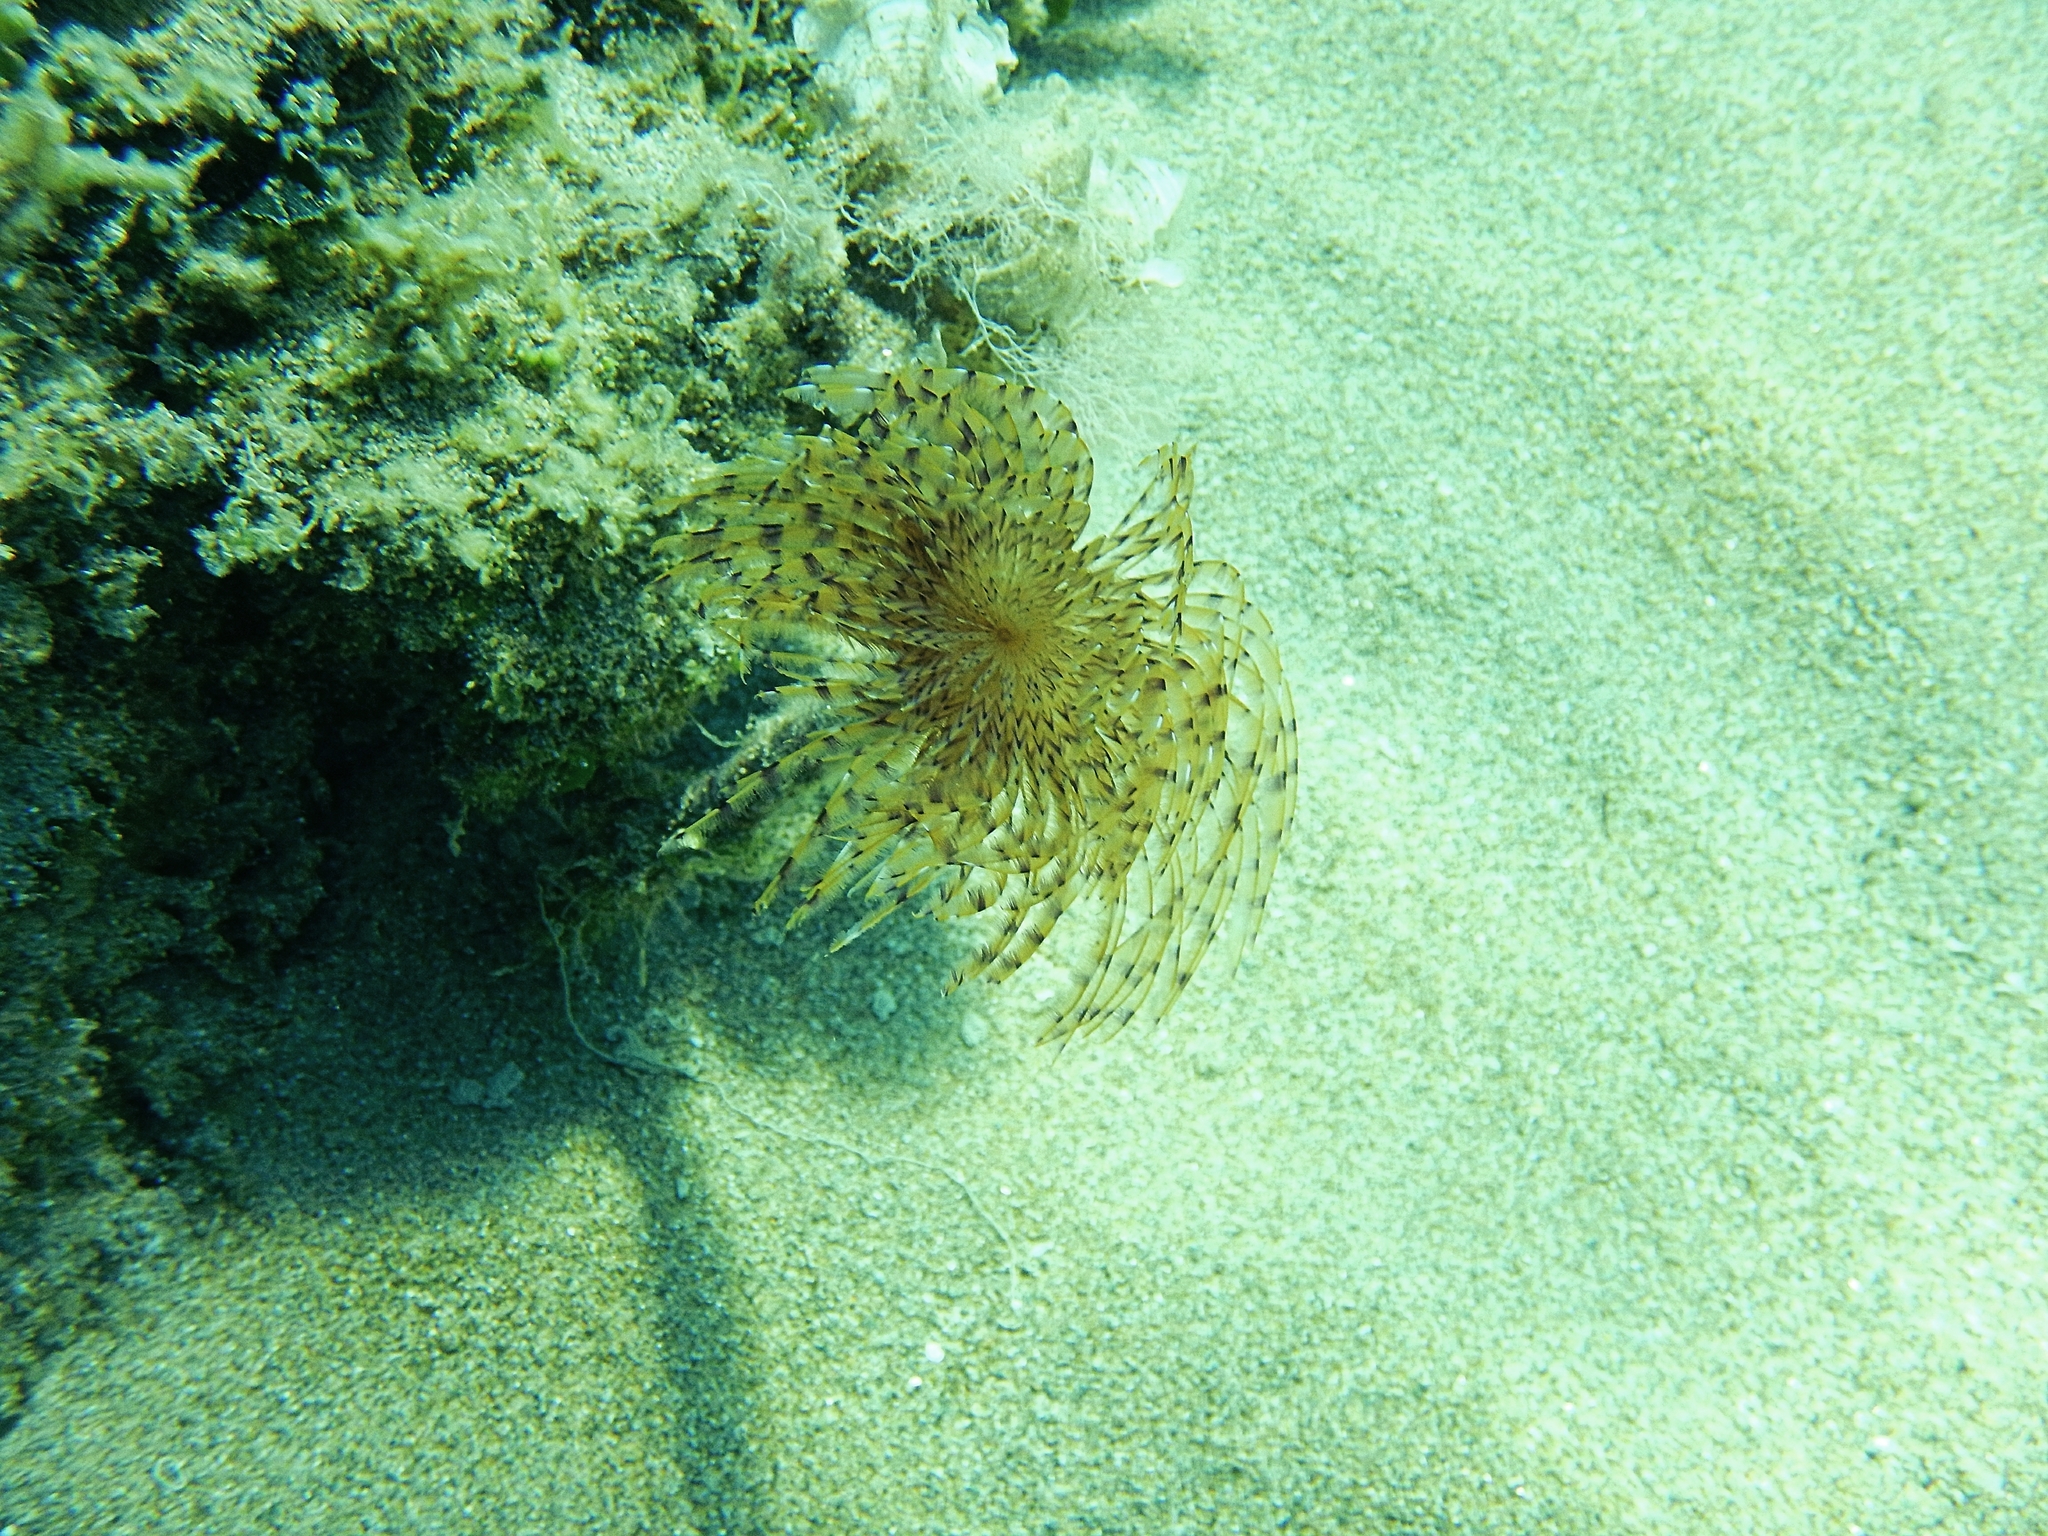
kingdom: Animalia
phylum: Annelida
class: Polychaeta
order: Sabellida
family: Sabellidae
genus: Sabella
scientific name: Sabella spallanzanii
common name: Feather duster worm
